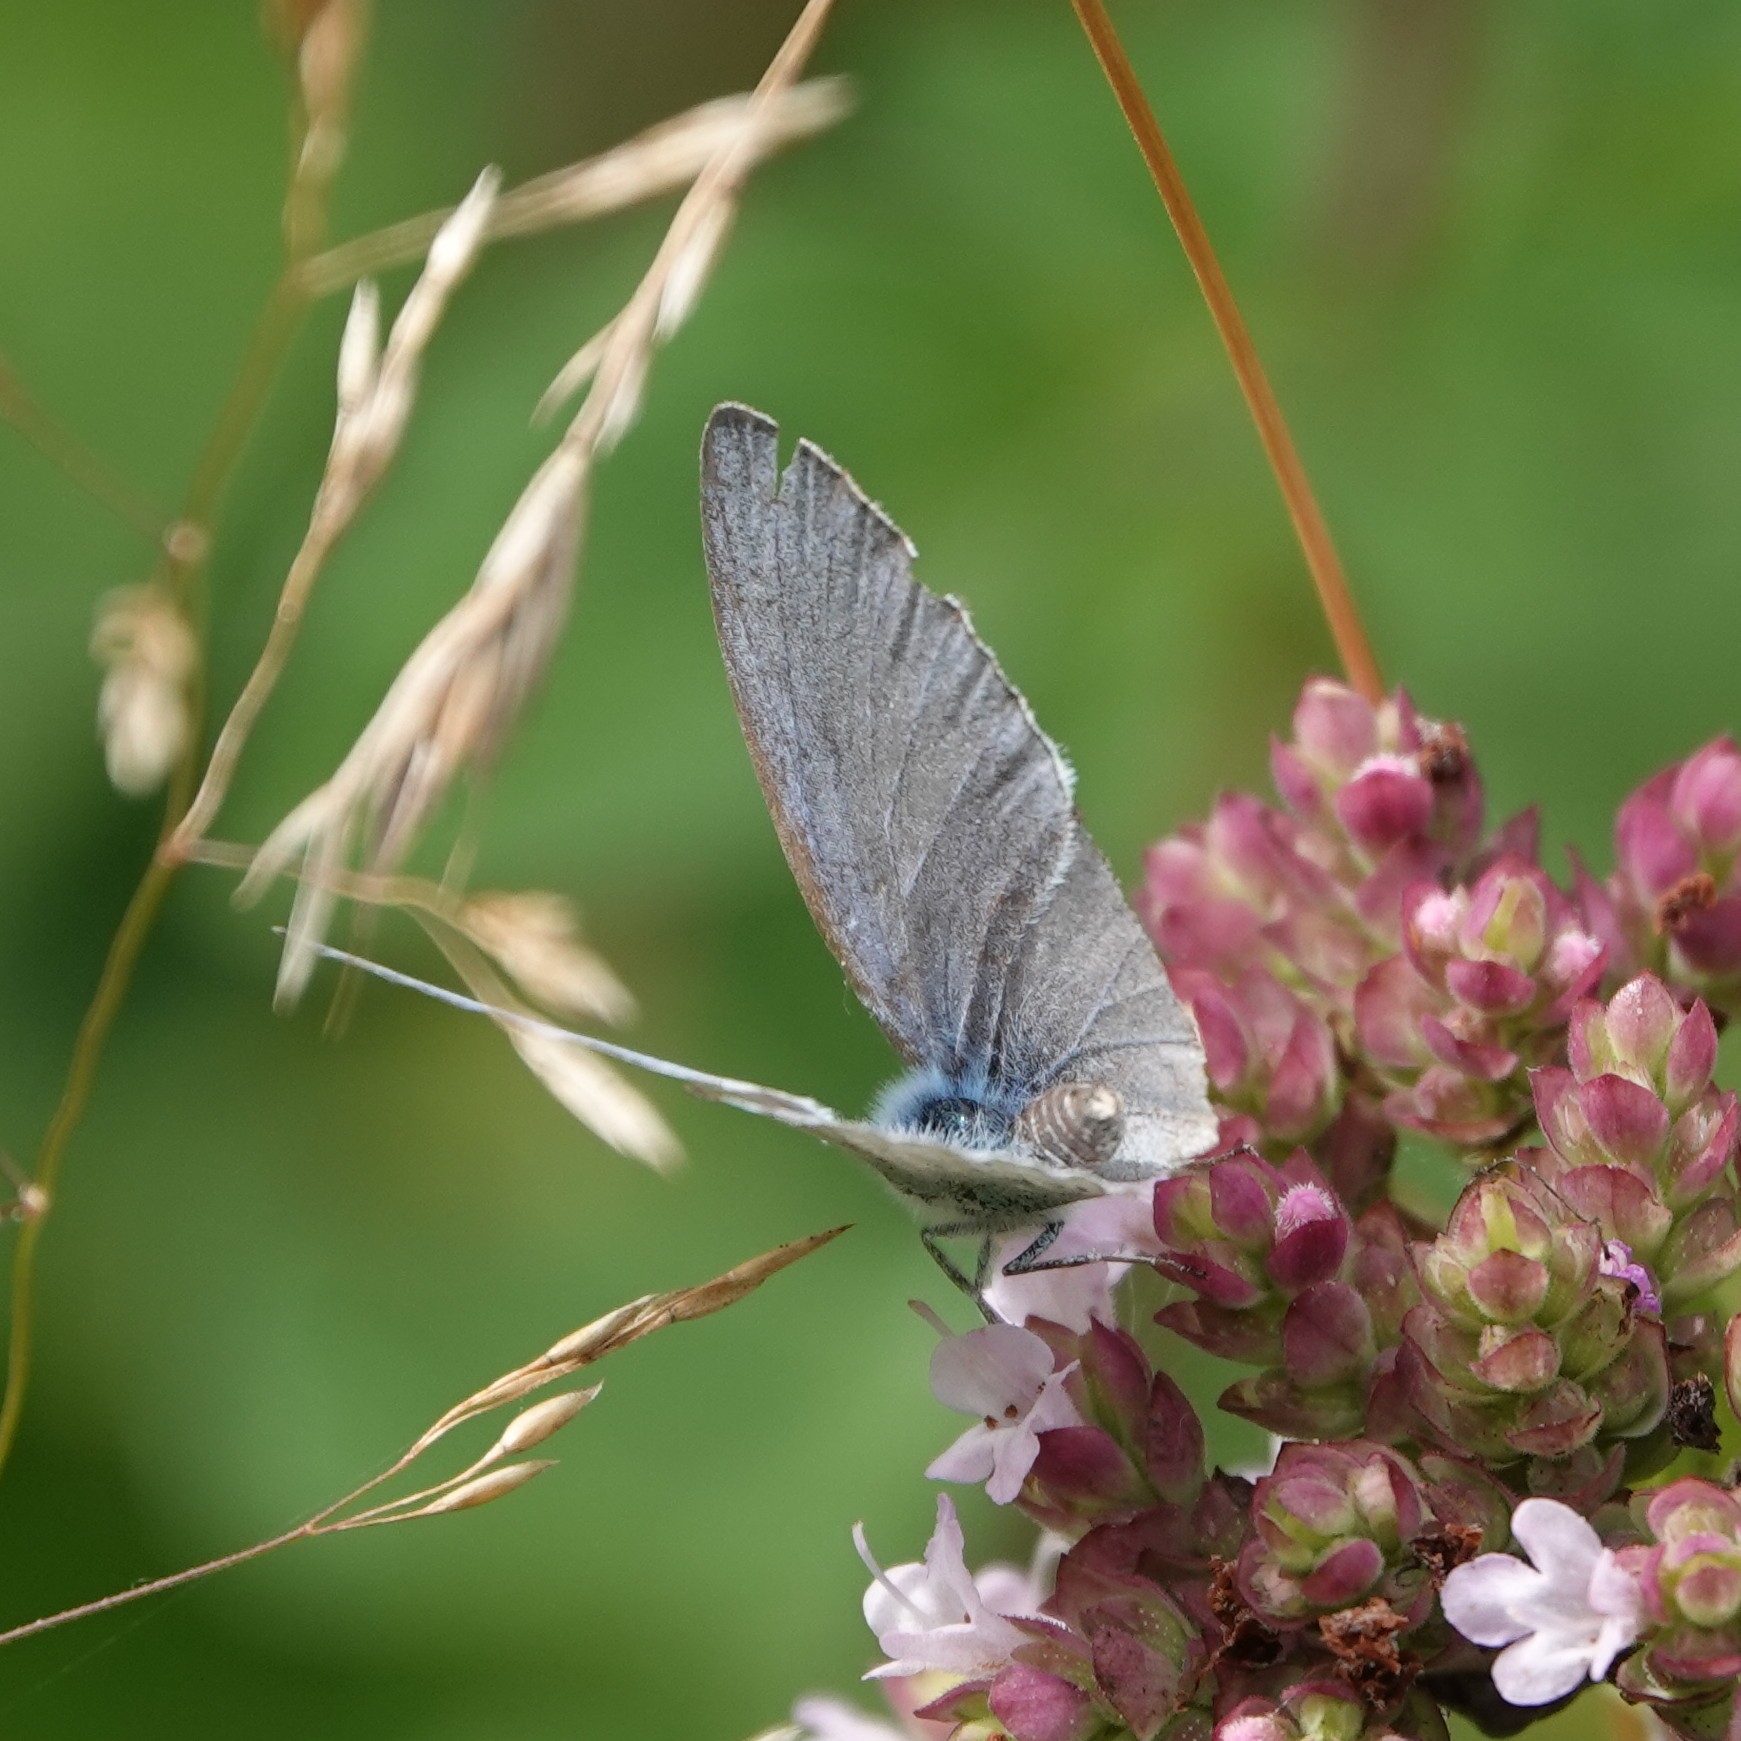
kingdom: Animalia
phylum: Arthropoda
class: Insecta
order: Lepidoptera
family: Lycaenidae
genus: Celastrina
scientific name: Celastrina argiolus
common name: Holly blue
